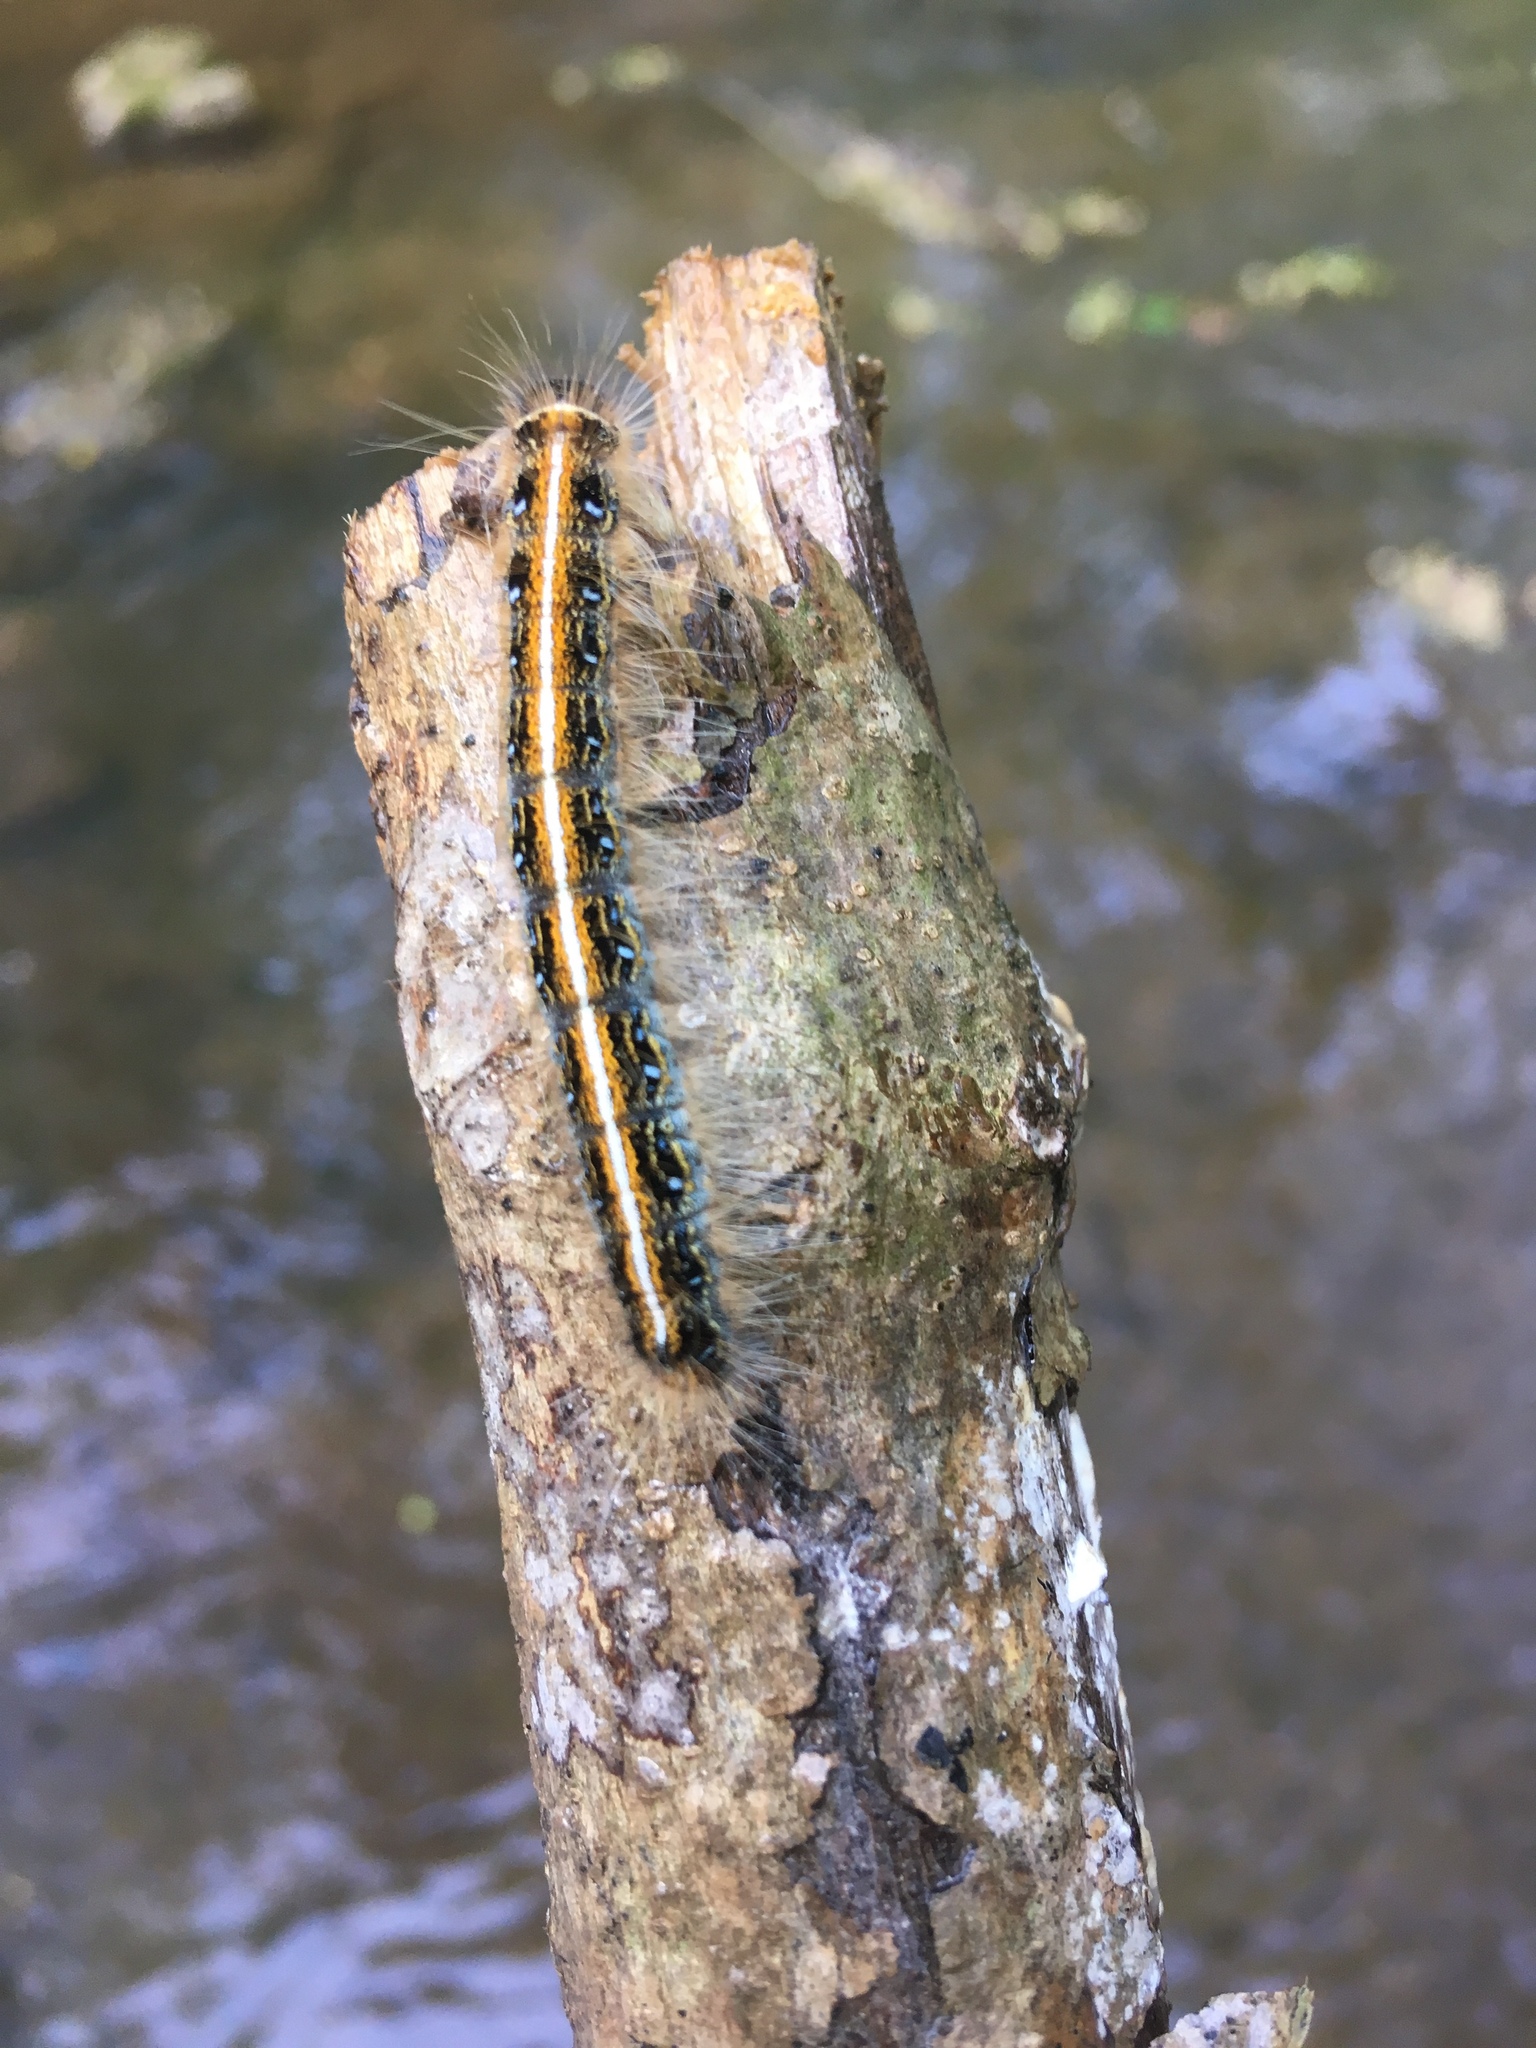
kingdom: Animalia
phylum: Arthropoda
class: Insecta
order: Lepidoptera
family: Lasiocampidae
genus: Malacosoma
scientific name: Malacosoma americana
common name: Eastern tent caterpillar moth
